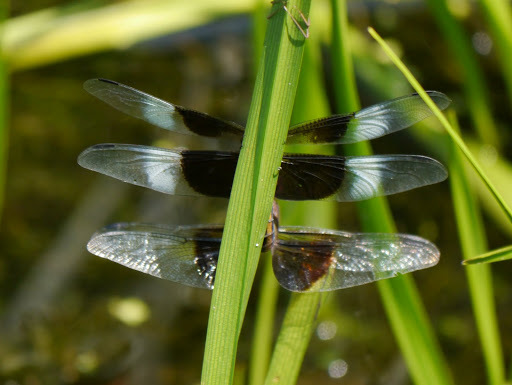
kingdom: Animalia
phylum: Arthropoda
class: Insecta
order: Odonata
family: Libellulidae
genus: Libellula
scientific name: Libellula luctuosa
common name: Widow skimmer
